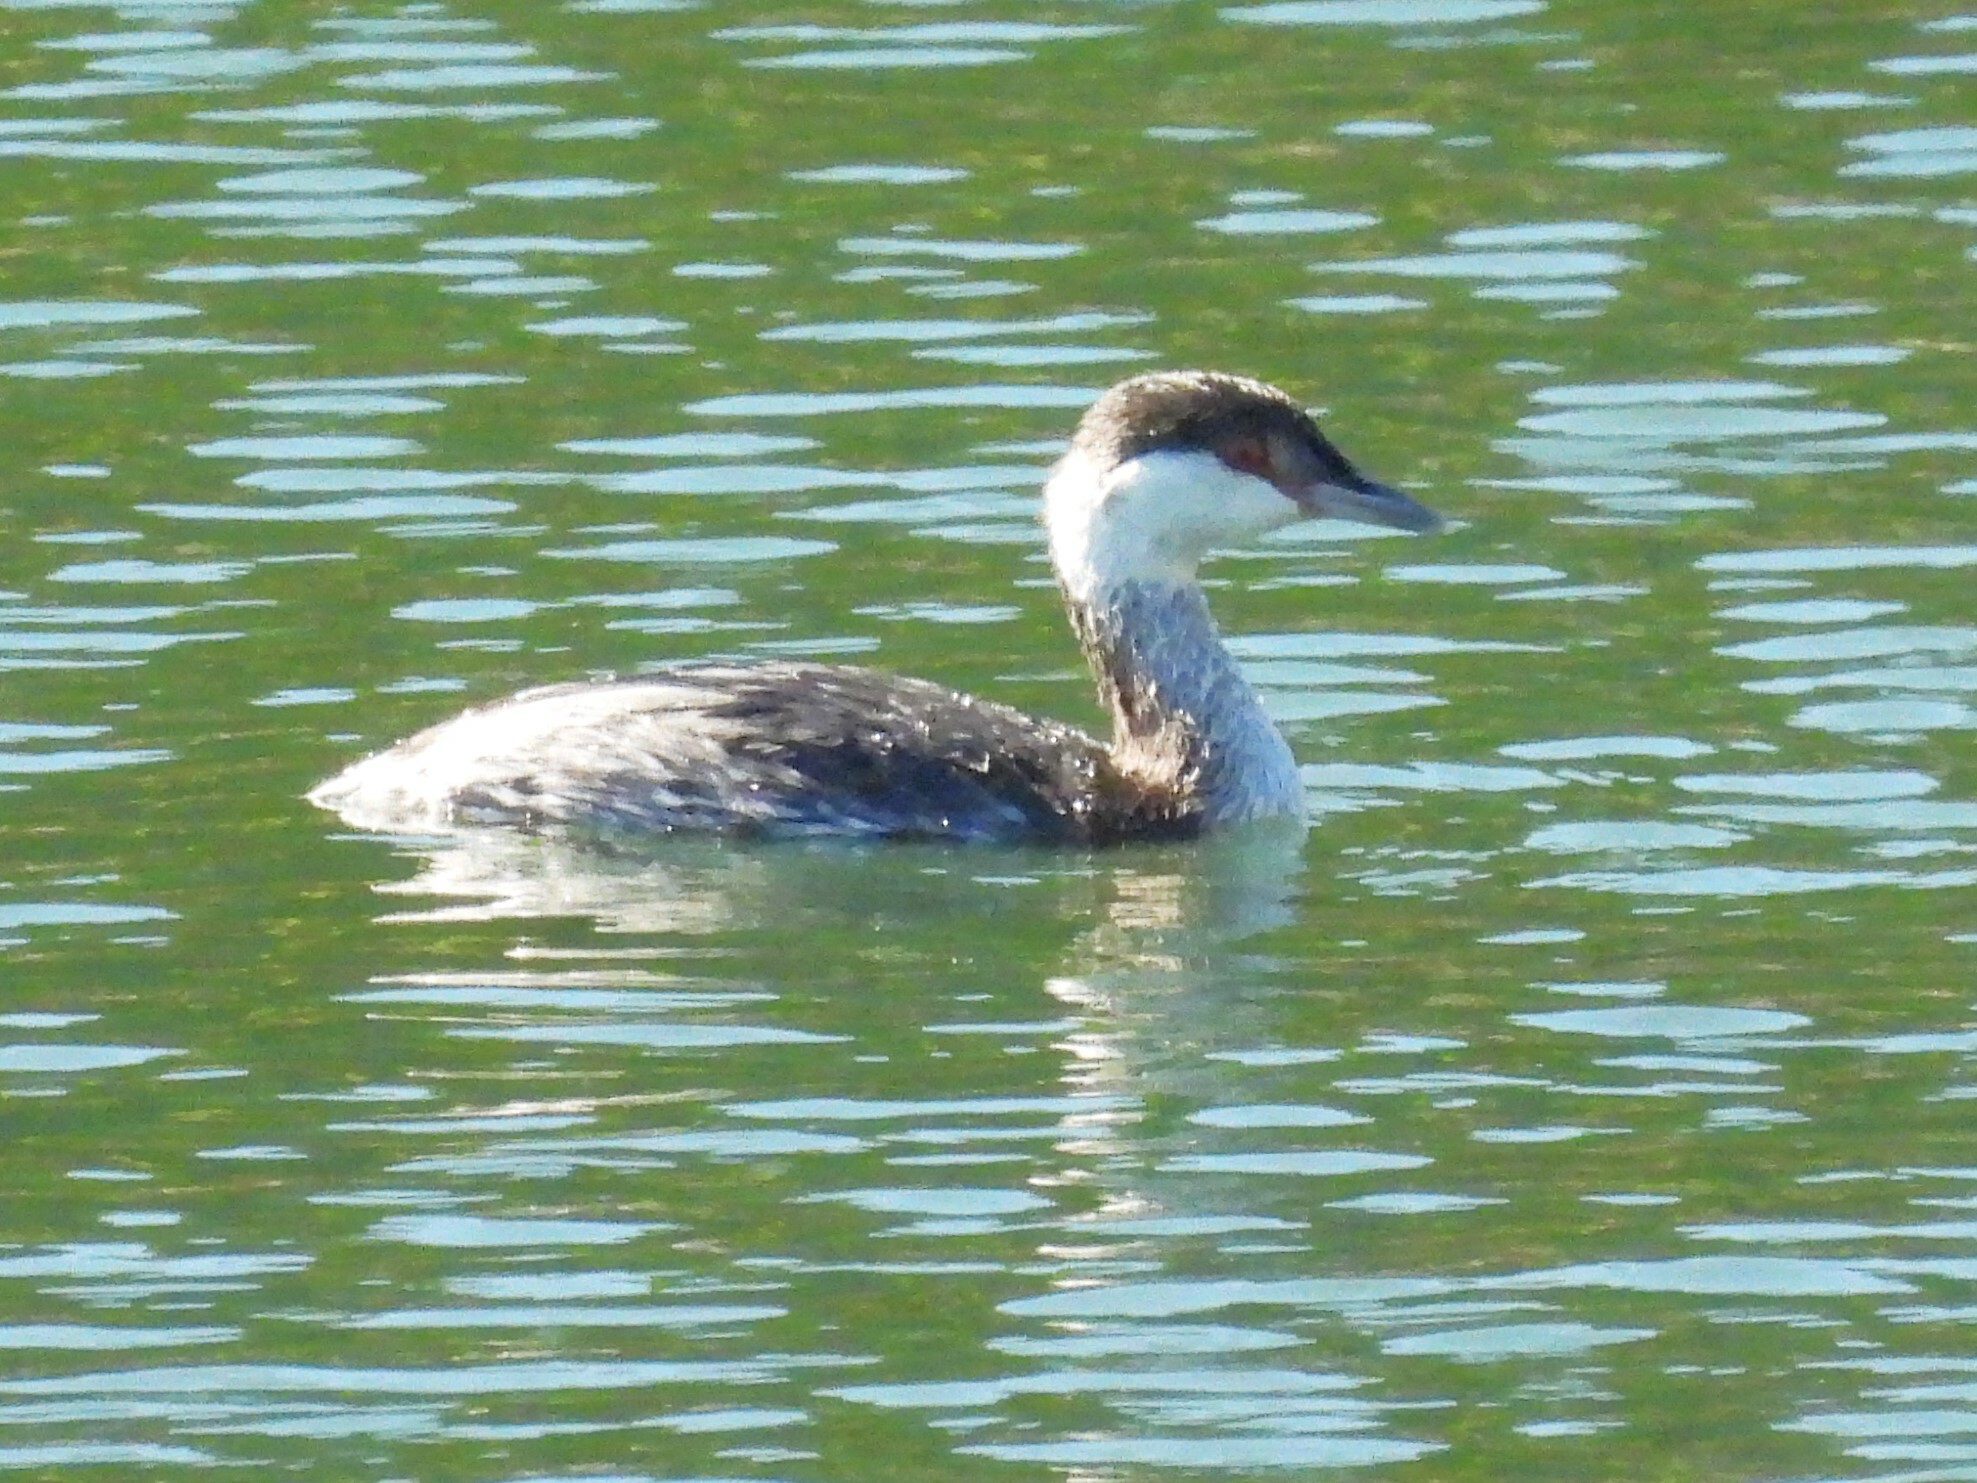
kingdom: Animalia
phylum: Chordata
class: Aves
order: Podicipediformes
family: Podicipedidae
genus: Podiceps
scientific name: Podiceps auritus
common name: Horned grebe
